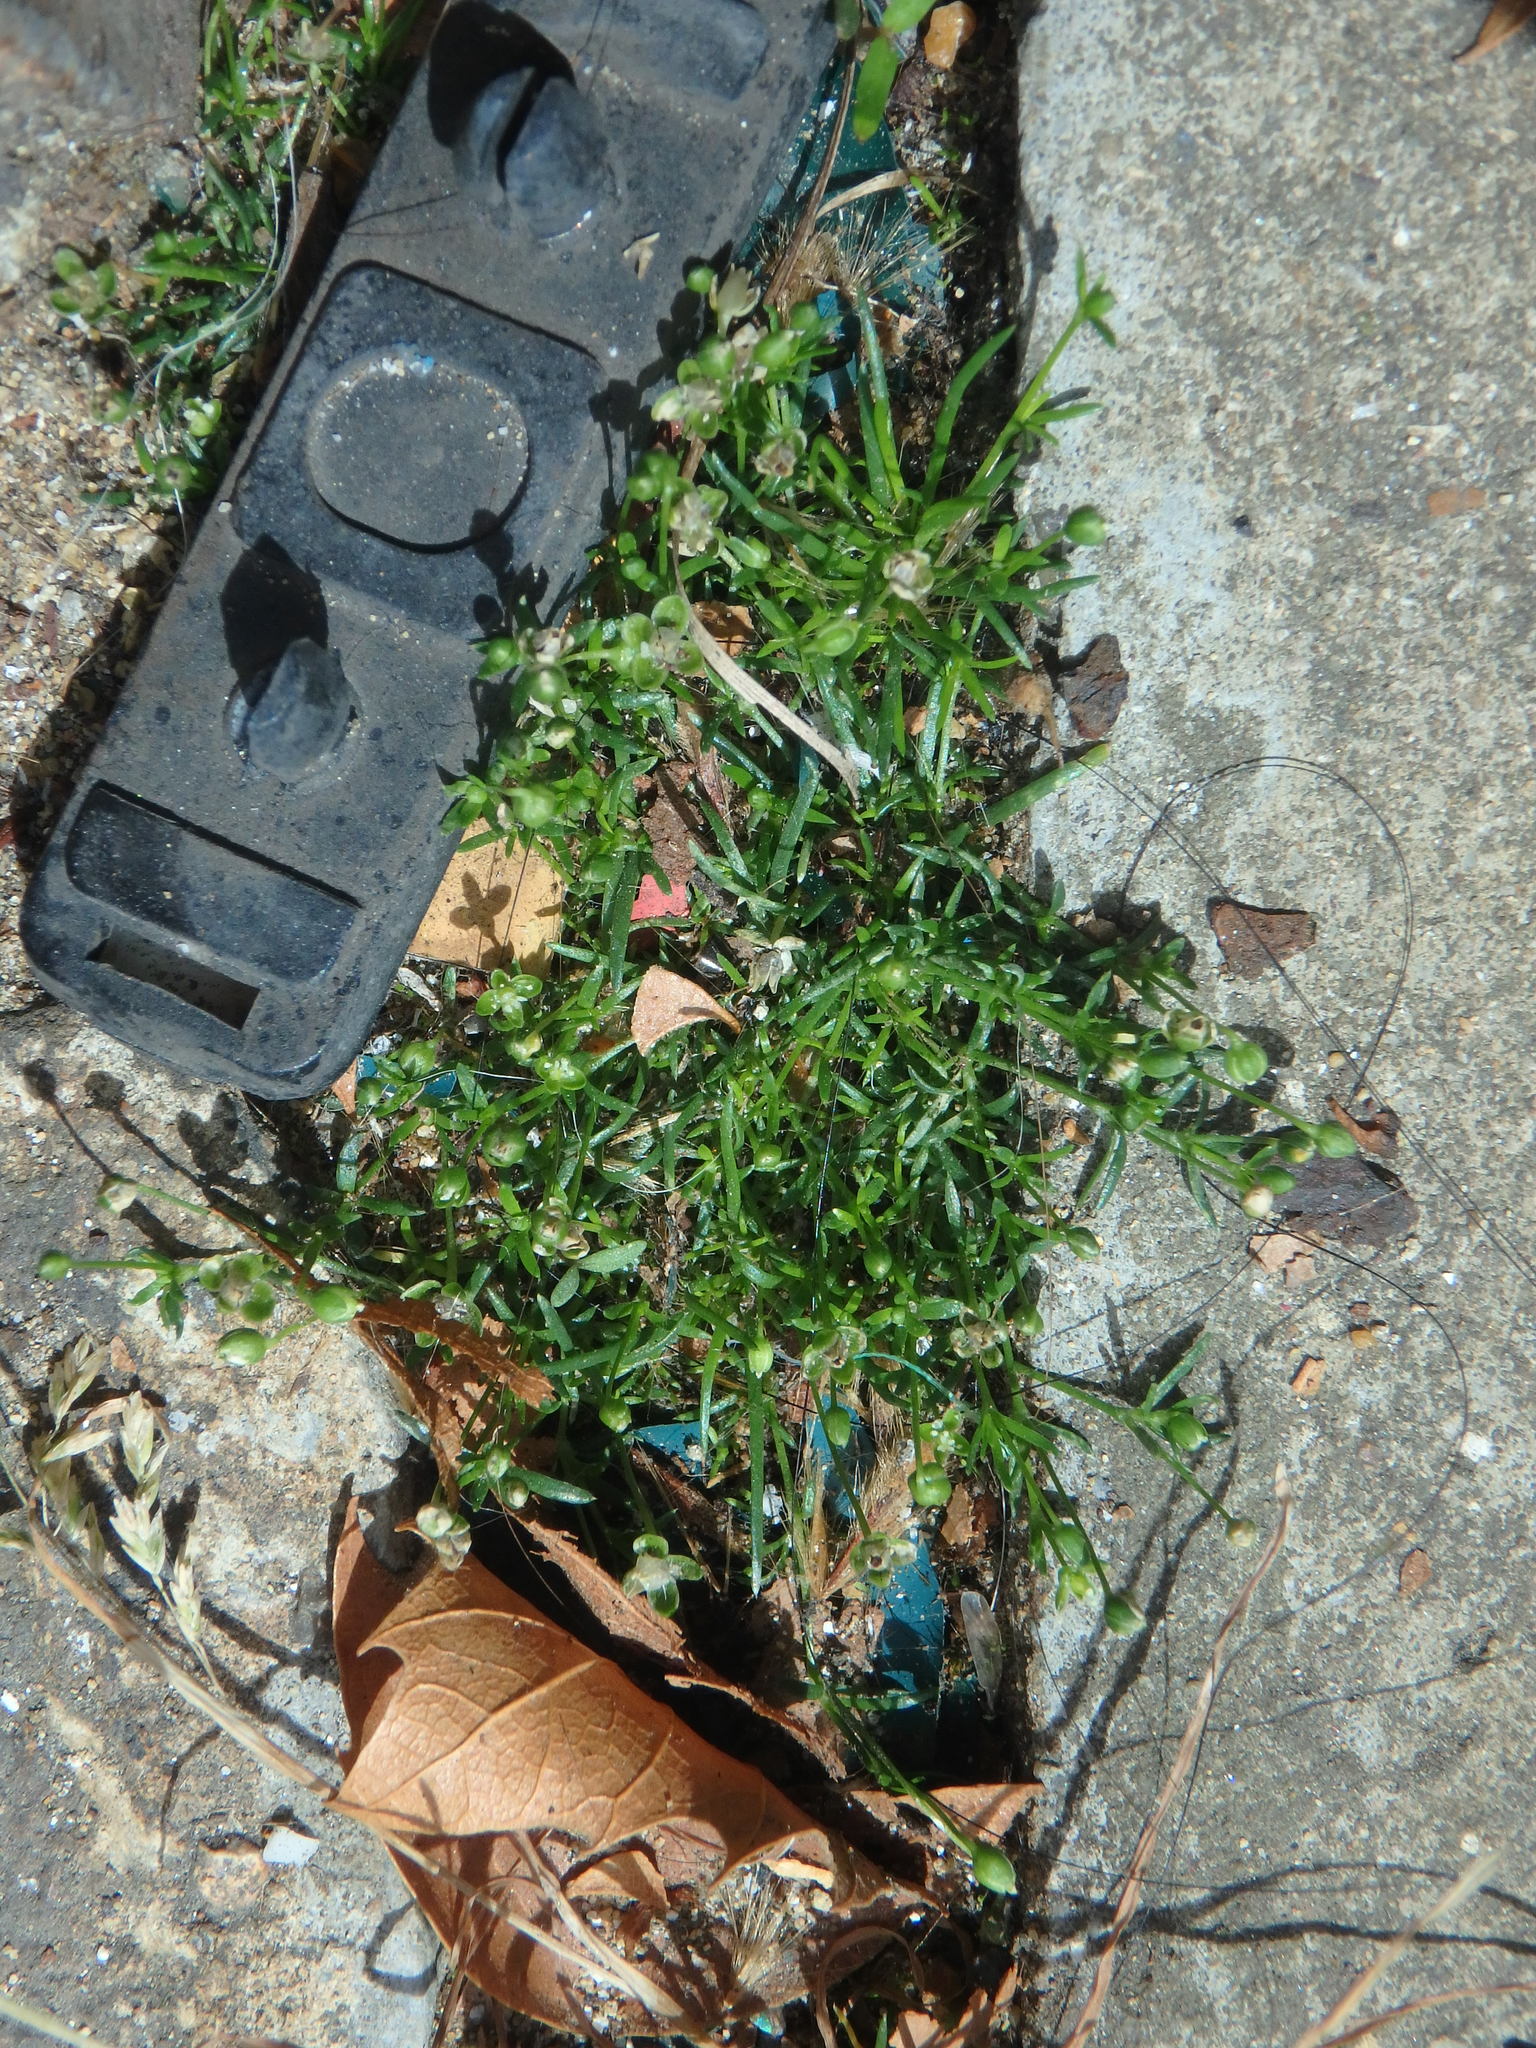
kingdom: Plantae
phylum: Tracheophyta
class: Magnoliopsida
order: Caryophyllales
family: Caryophyllaceae
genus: Sagina
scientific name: Sagina procumbens
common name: Procumbent pearlwort
